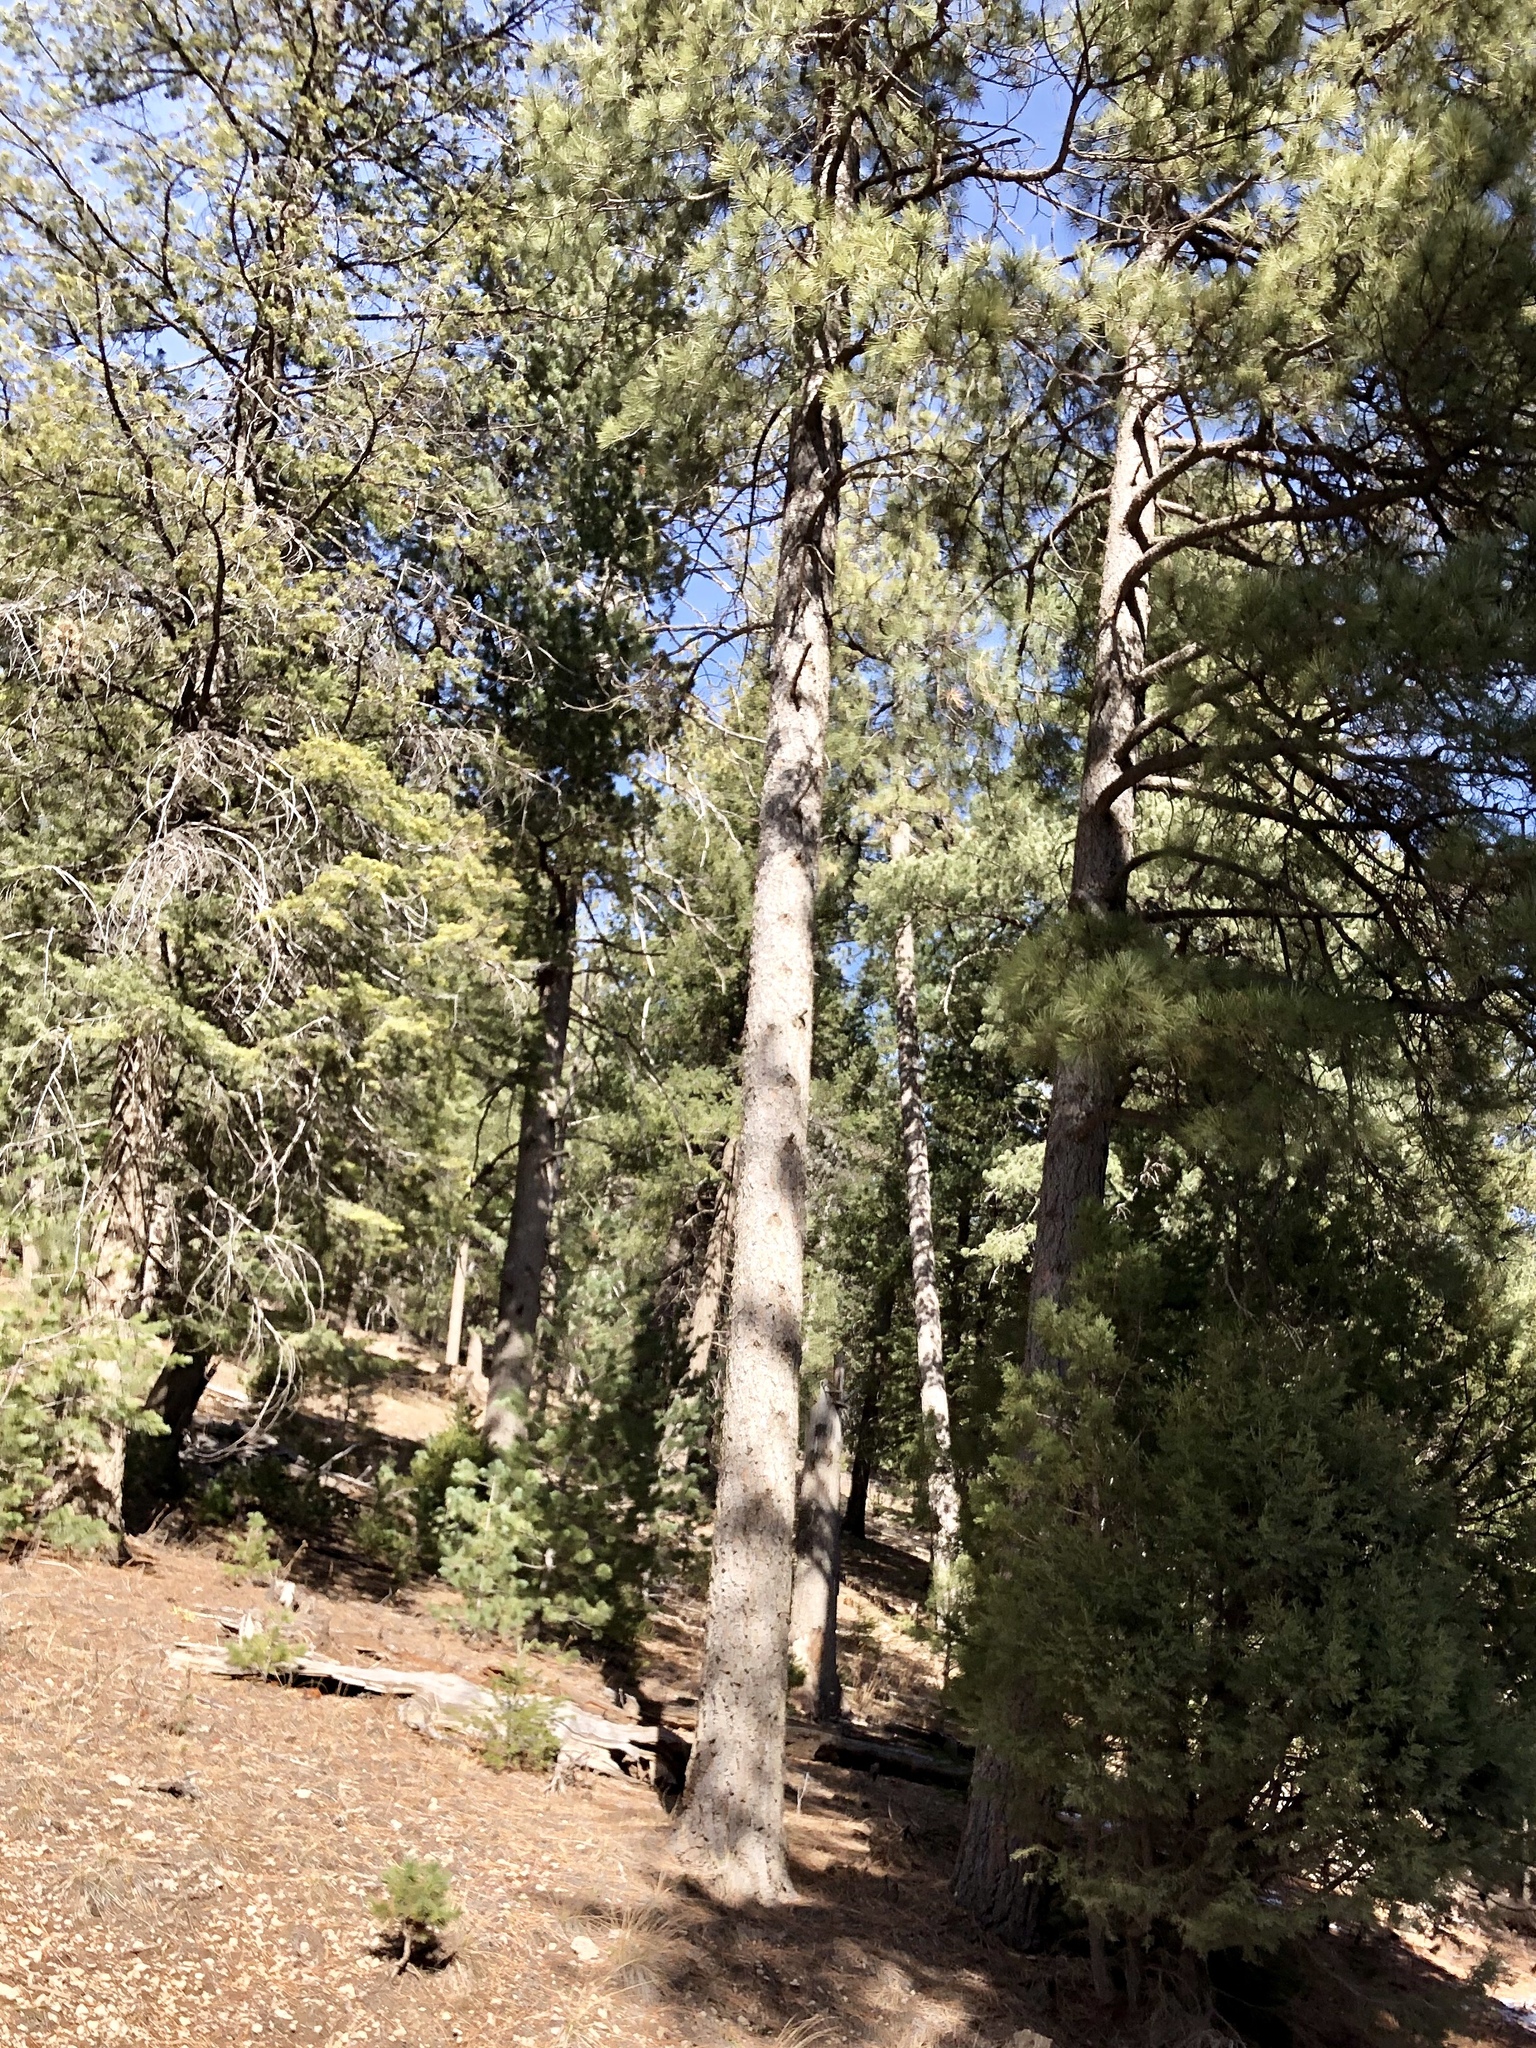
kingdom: Plantae
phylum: Tracheophyta
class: Pinopsida
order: Pinales
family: Pinaceae
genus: Pinus
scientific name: Pinus ponderosa
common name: Western yellow-pine
